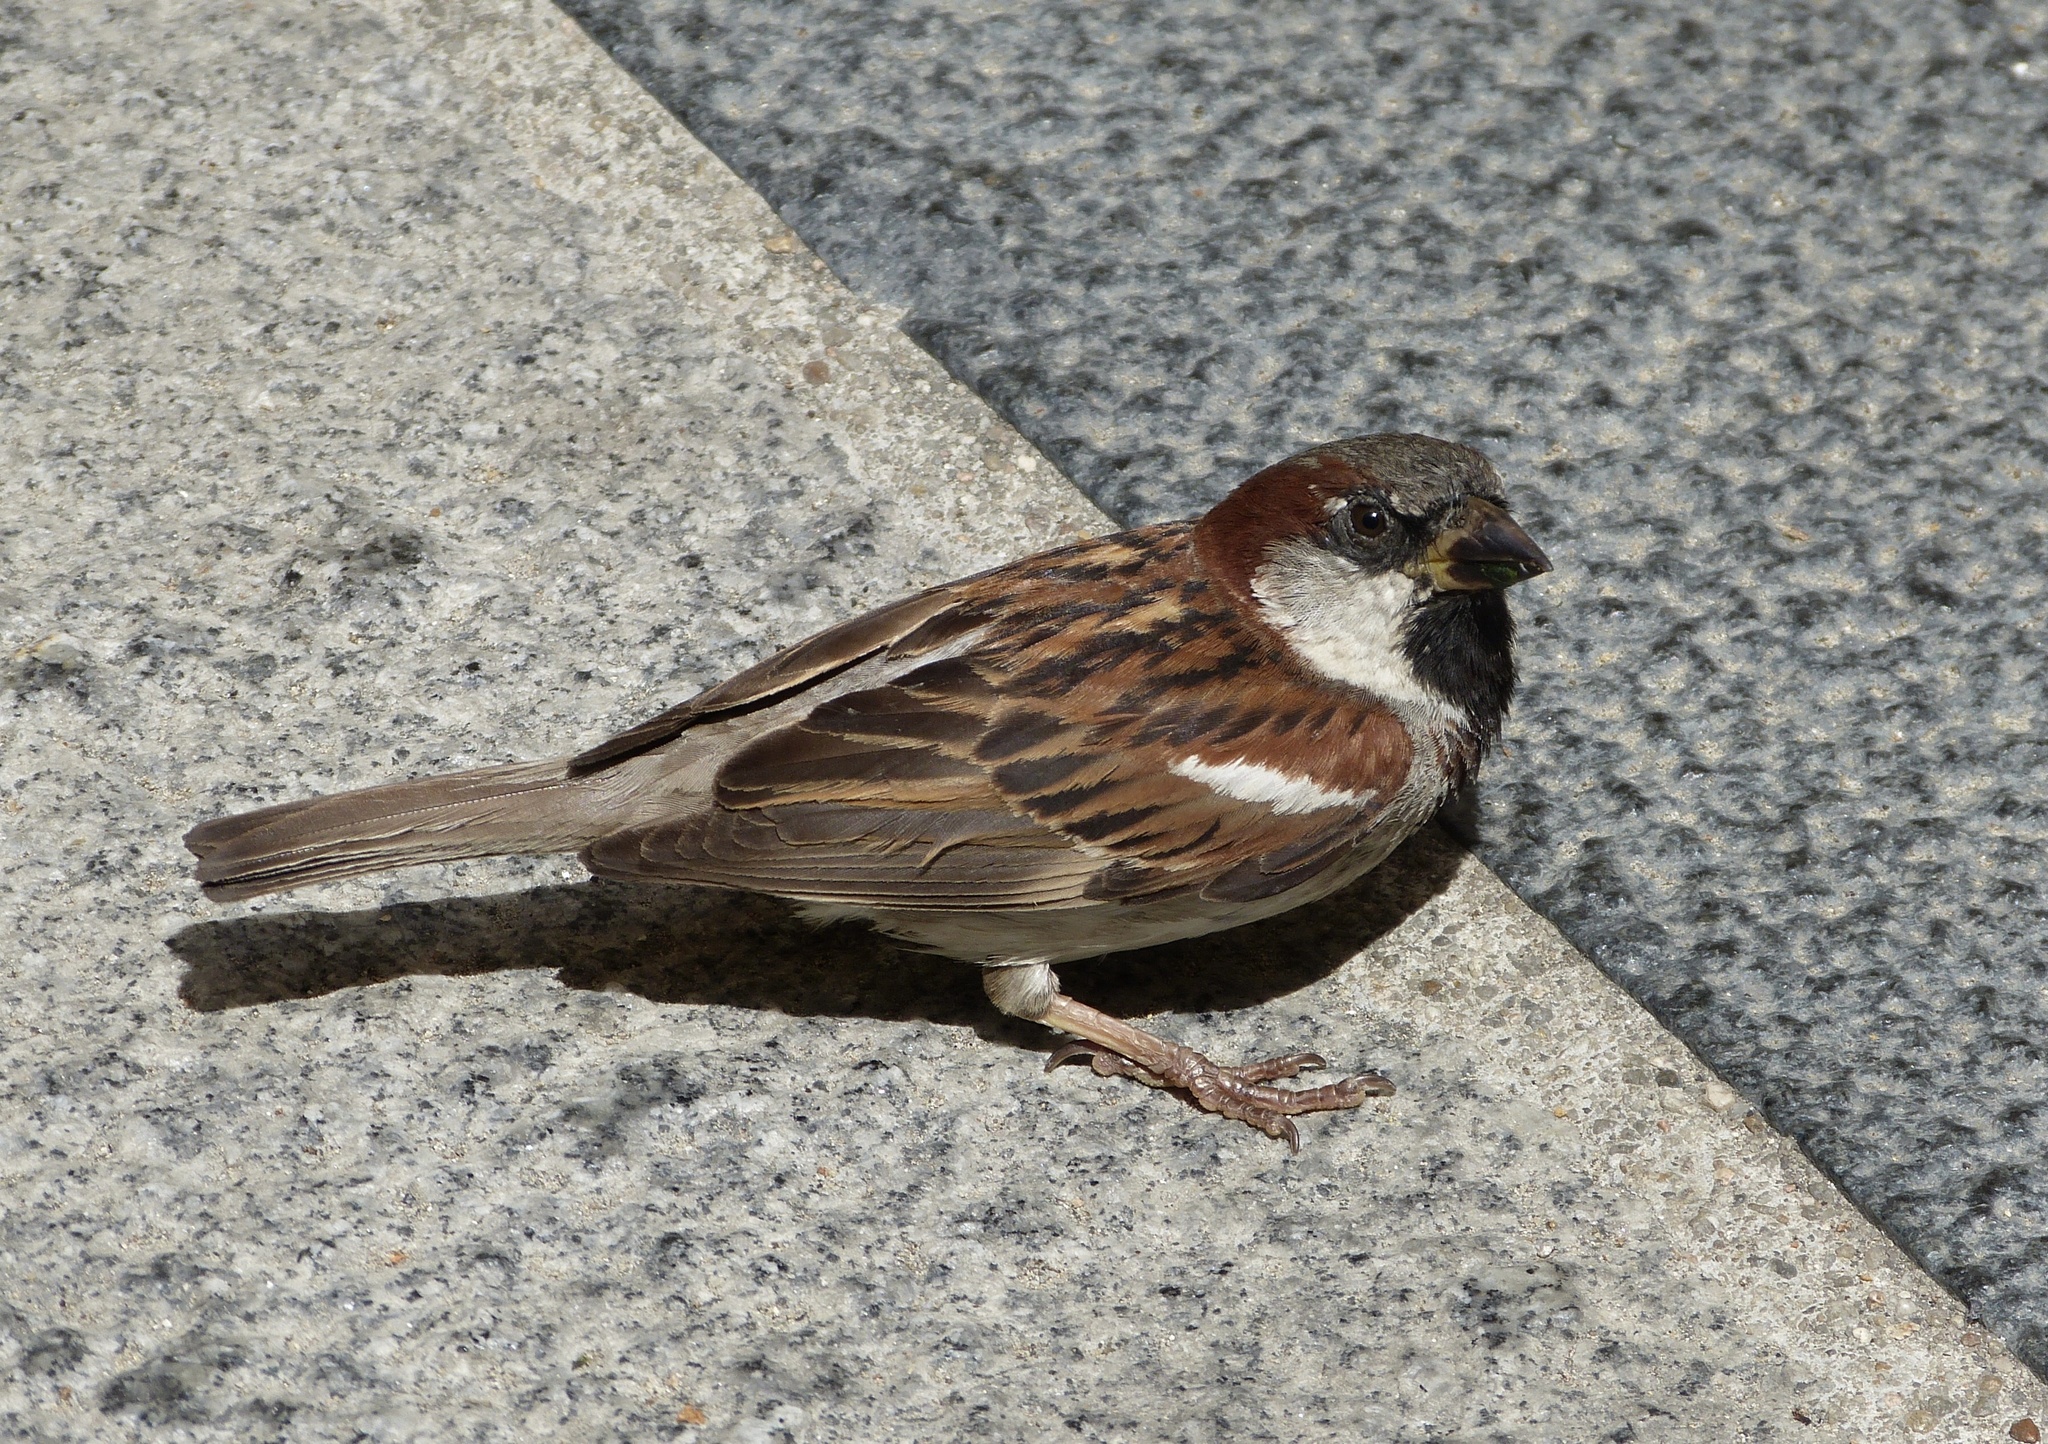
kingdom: Animalia
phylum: Chordata
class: Aves
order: Passeriformes
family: Passeridae
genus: Passer
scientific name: Passer domesticus
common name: House sparrow
